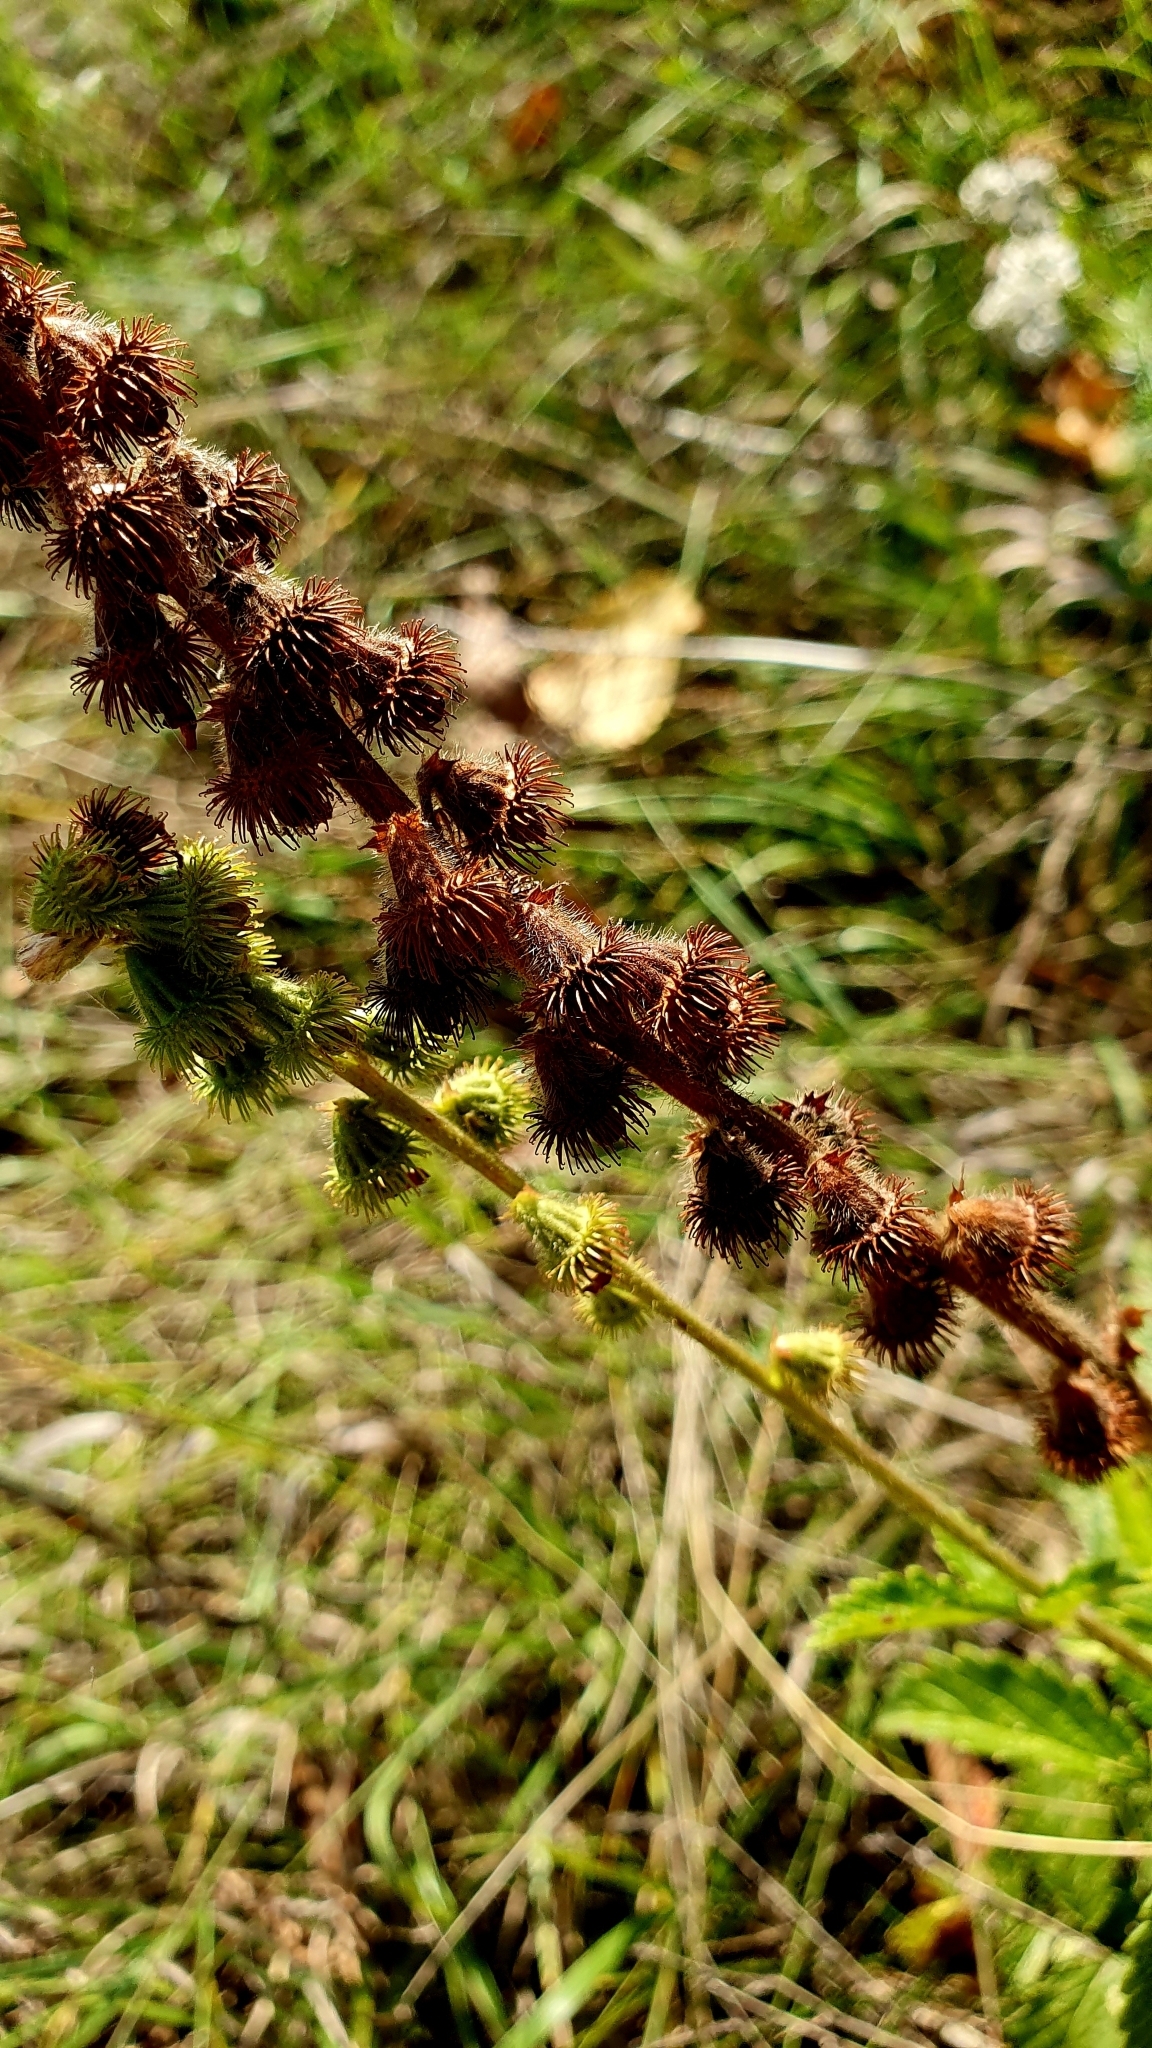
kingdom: Plantae
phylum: Tracheophyta
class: Magnoliopsida
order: Rosales
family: Rosaceae
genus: Agrimonia
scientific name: Agrimonia eupatoria
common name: Agrimony
